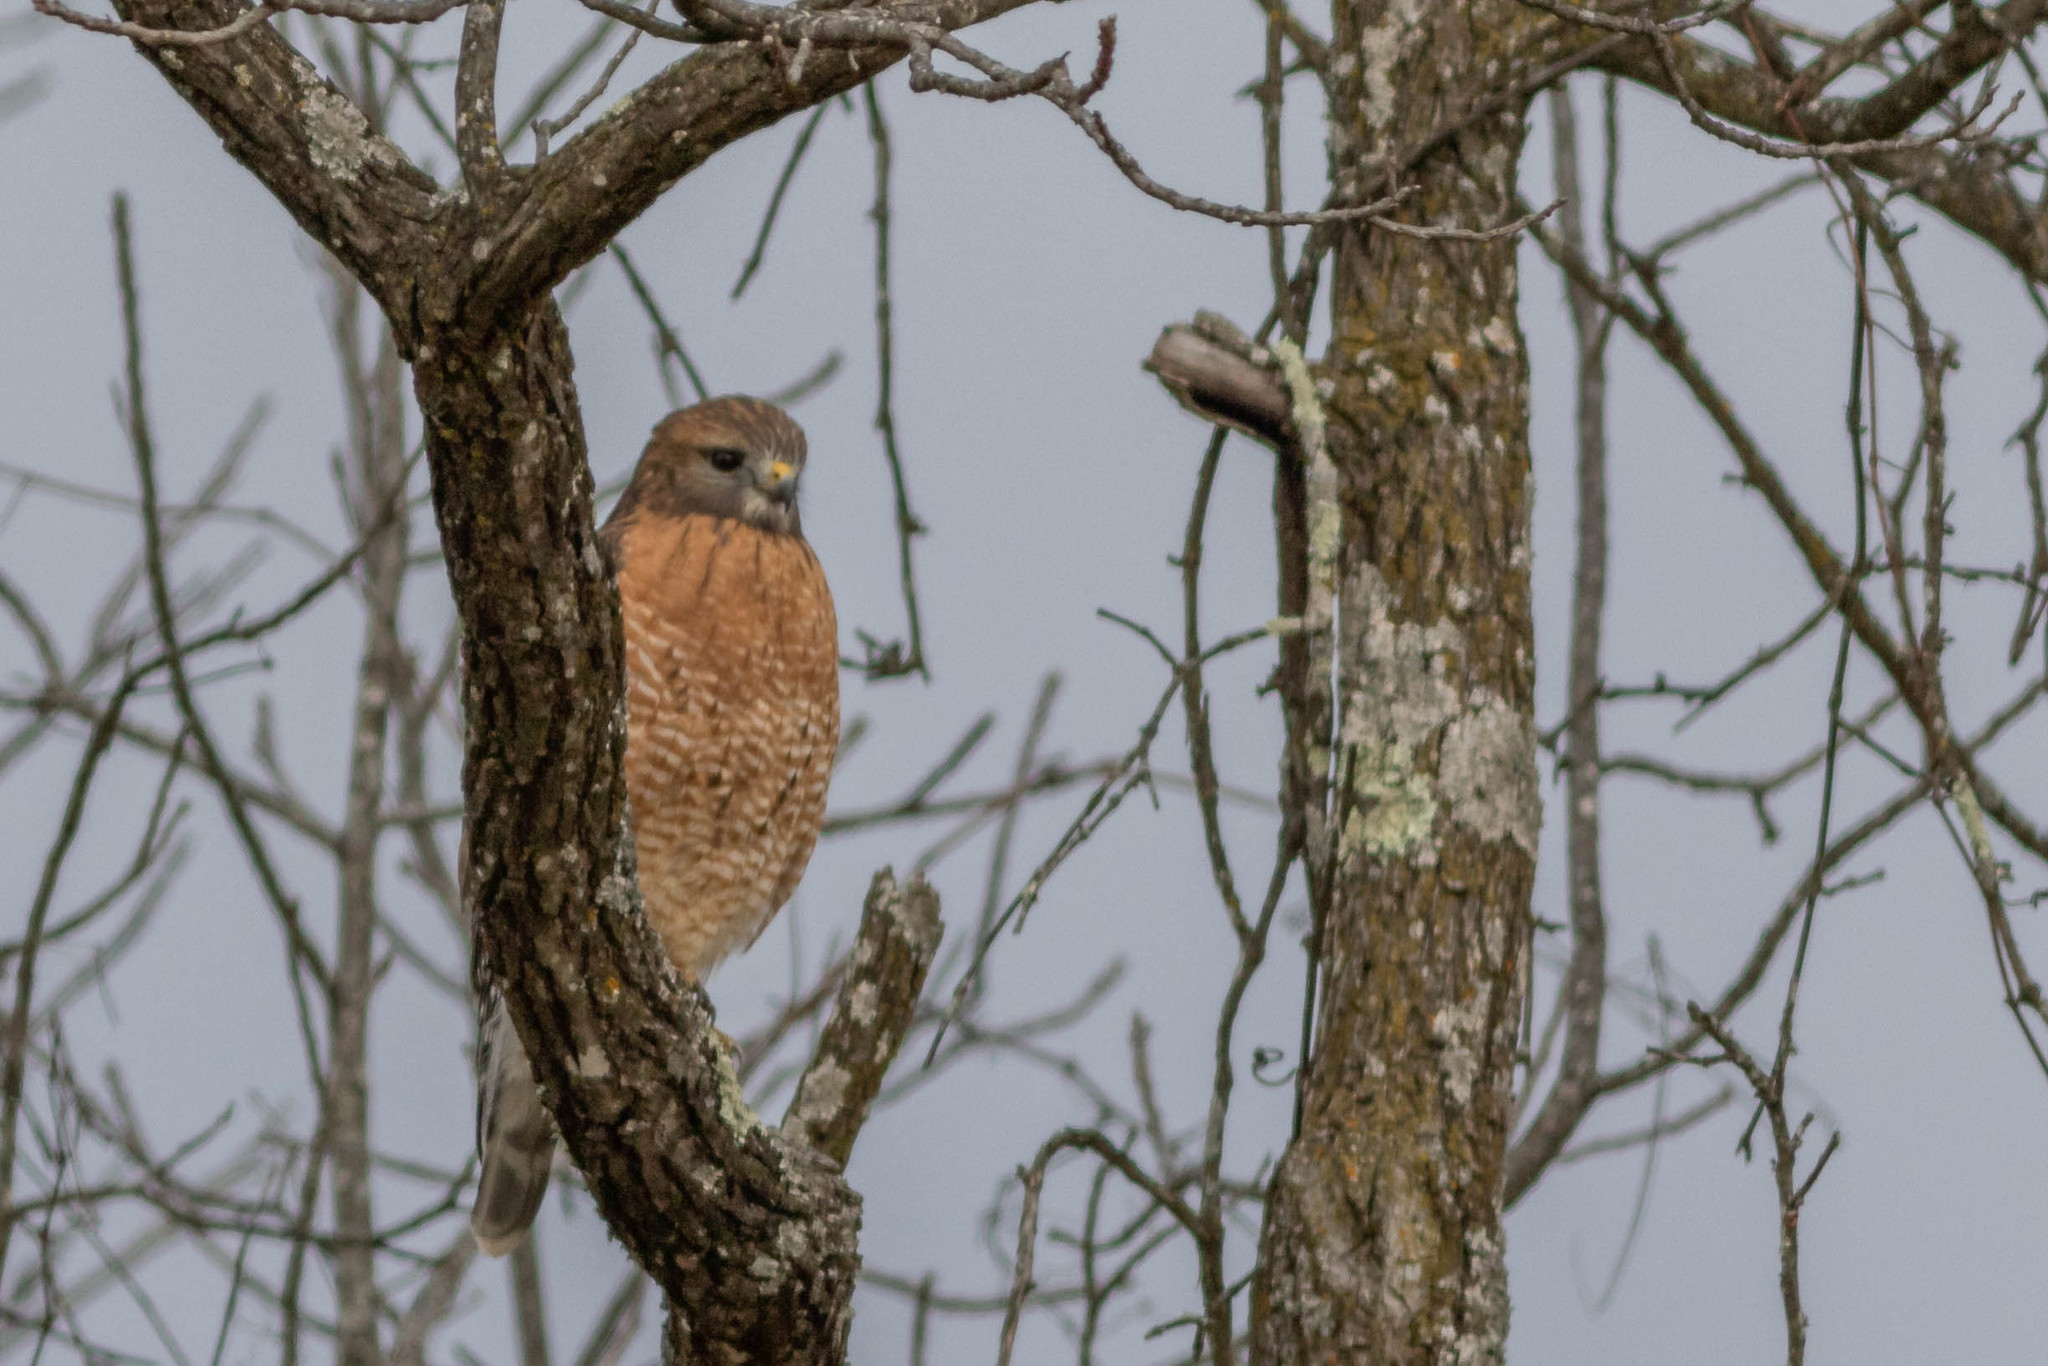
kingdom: Animalia
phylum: Chordata
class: Aves
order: Accipitriformes
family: Accipitridae
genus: Buteo
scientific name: Buteo lineatus
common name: Red-shouldered hawk
